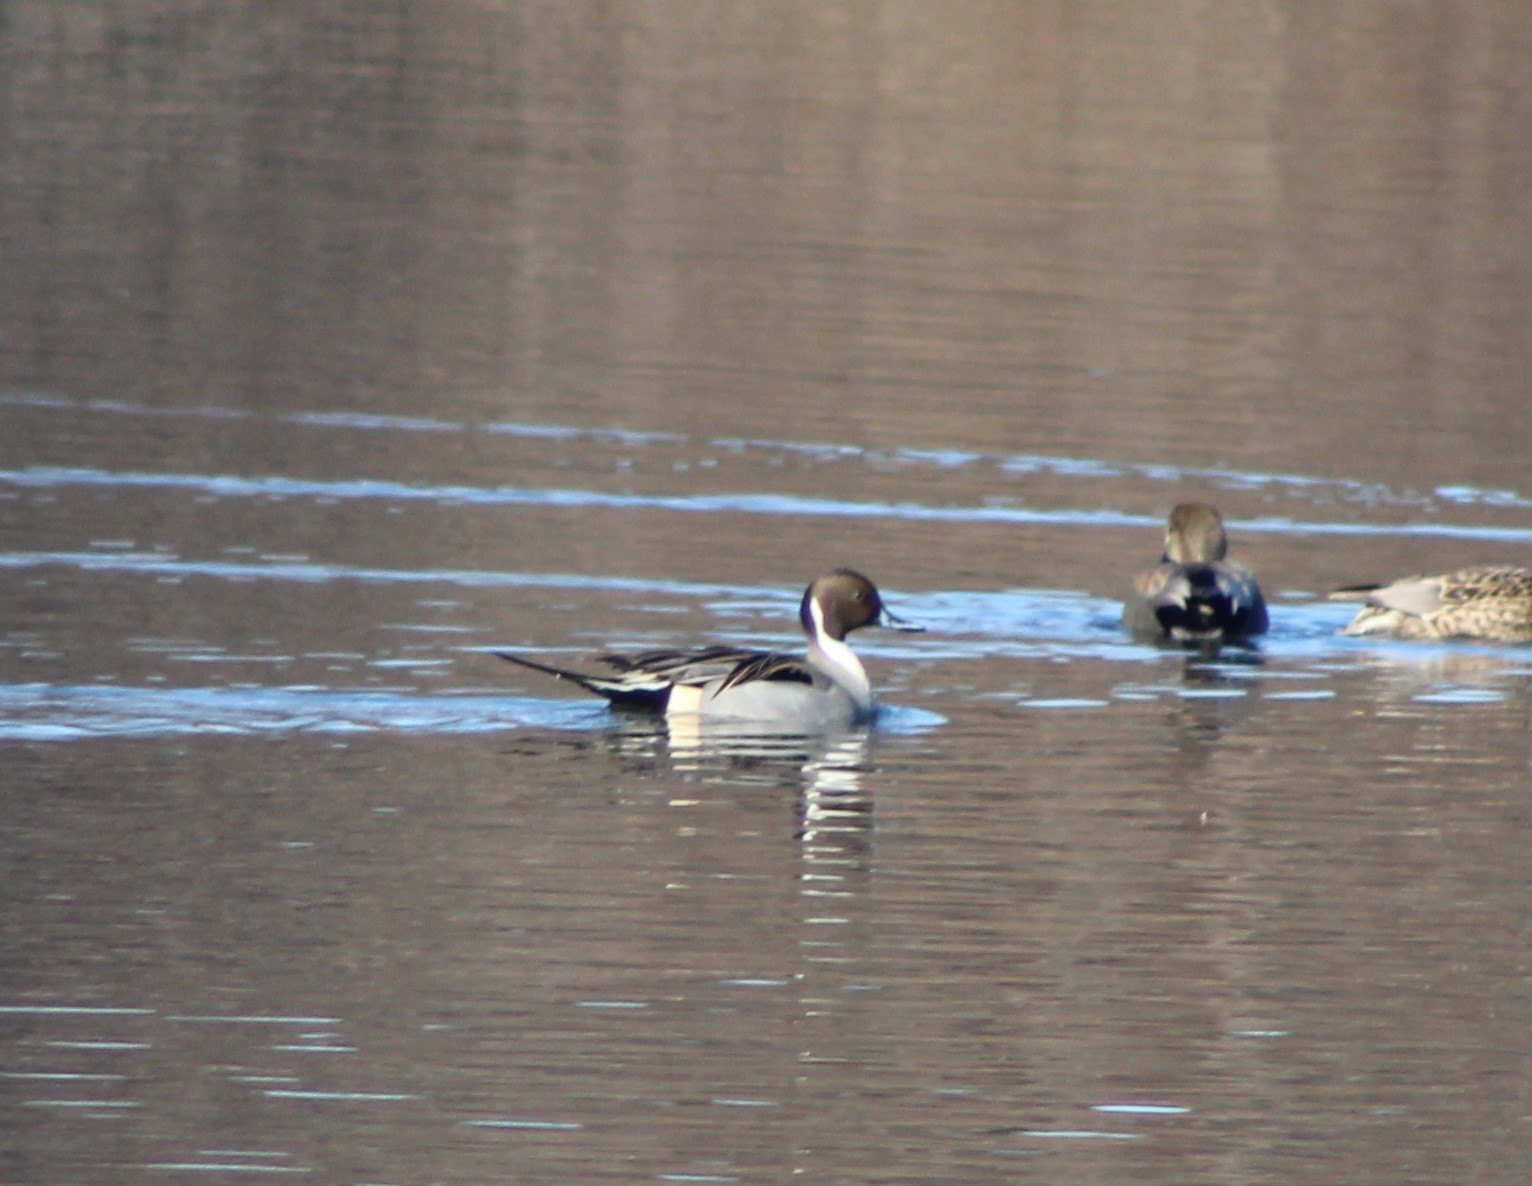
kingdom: Animalia
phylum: Chordata
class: Aves
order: Anseriformes
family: Anatidae
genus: Anas
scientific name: Anas acuta
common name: Northern pintail
